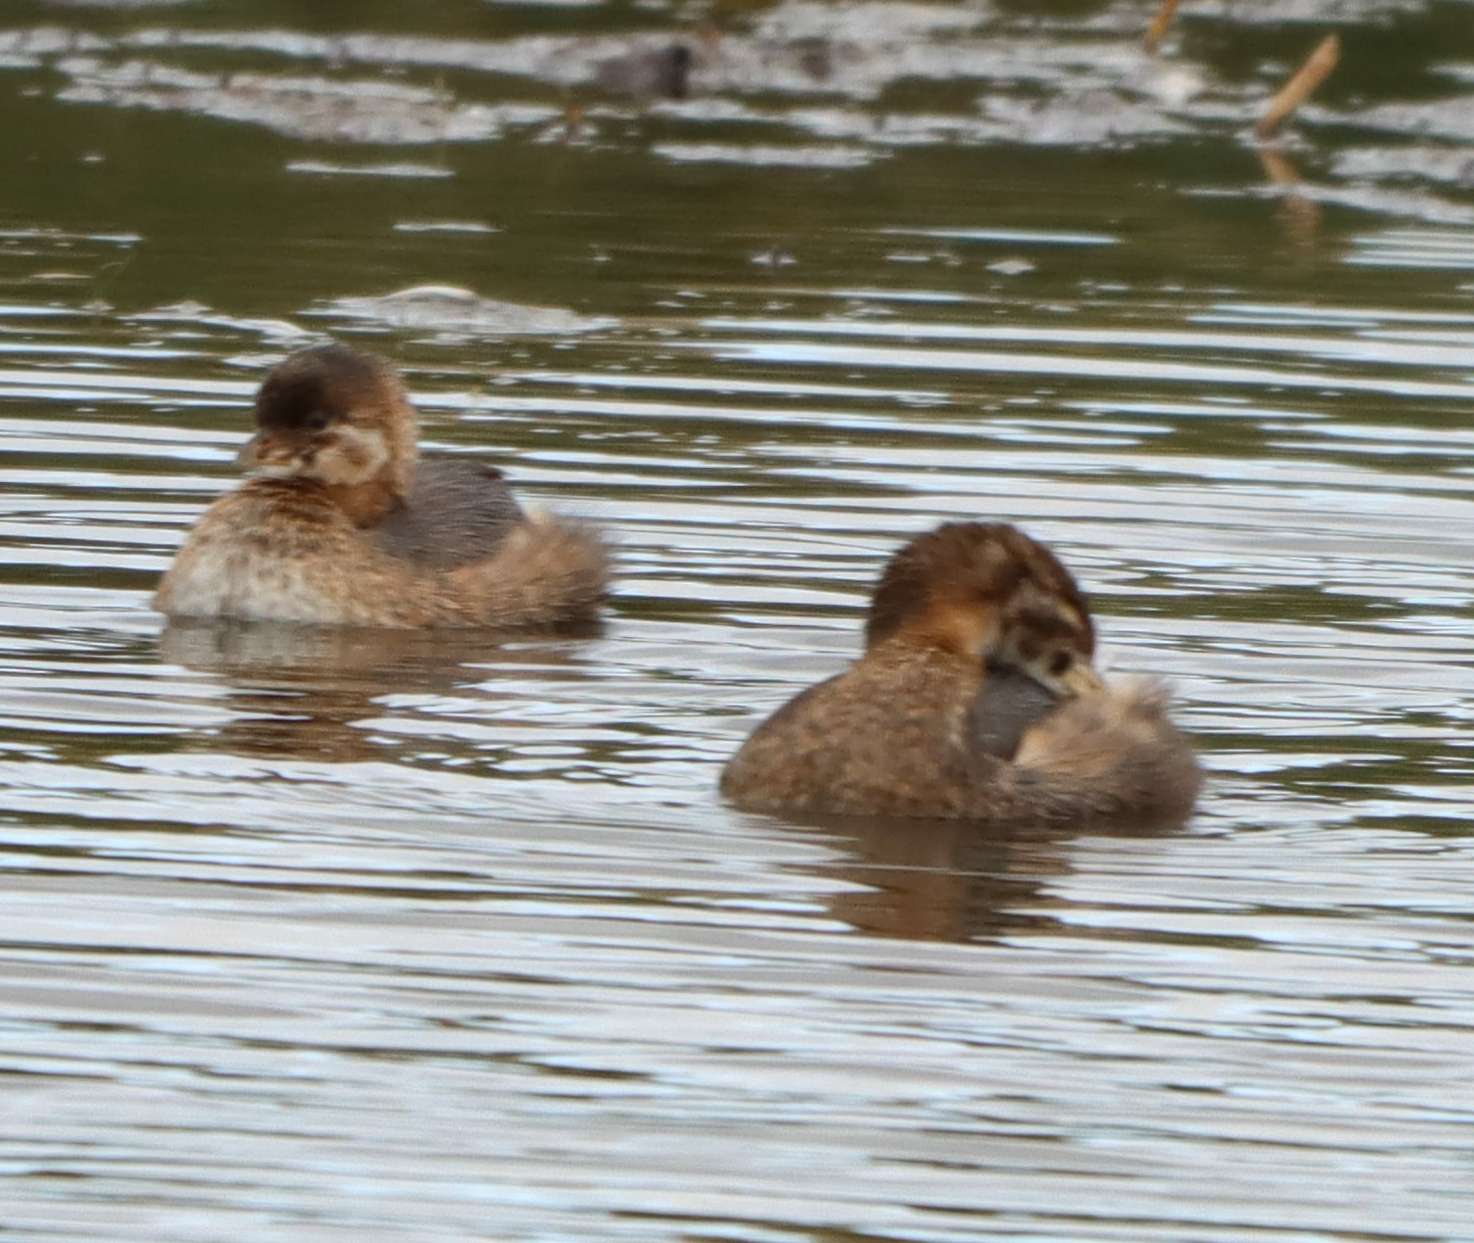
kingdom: Animalia
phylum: Chordata
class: Aves
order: Podicipediformes
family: Podicipedidae
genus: Podilymbus
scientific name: Podilymbus podiceps
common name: Pied-billed grebe
